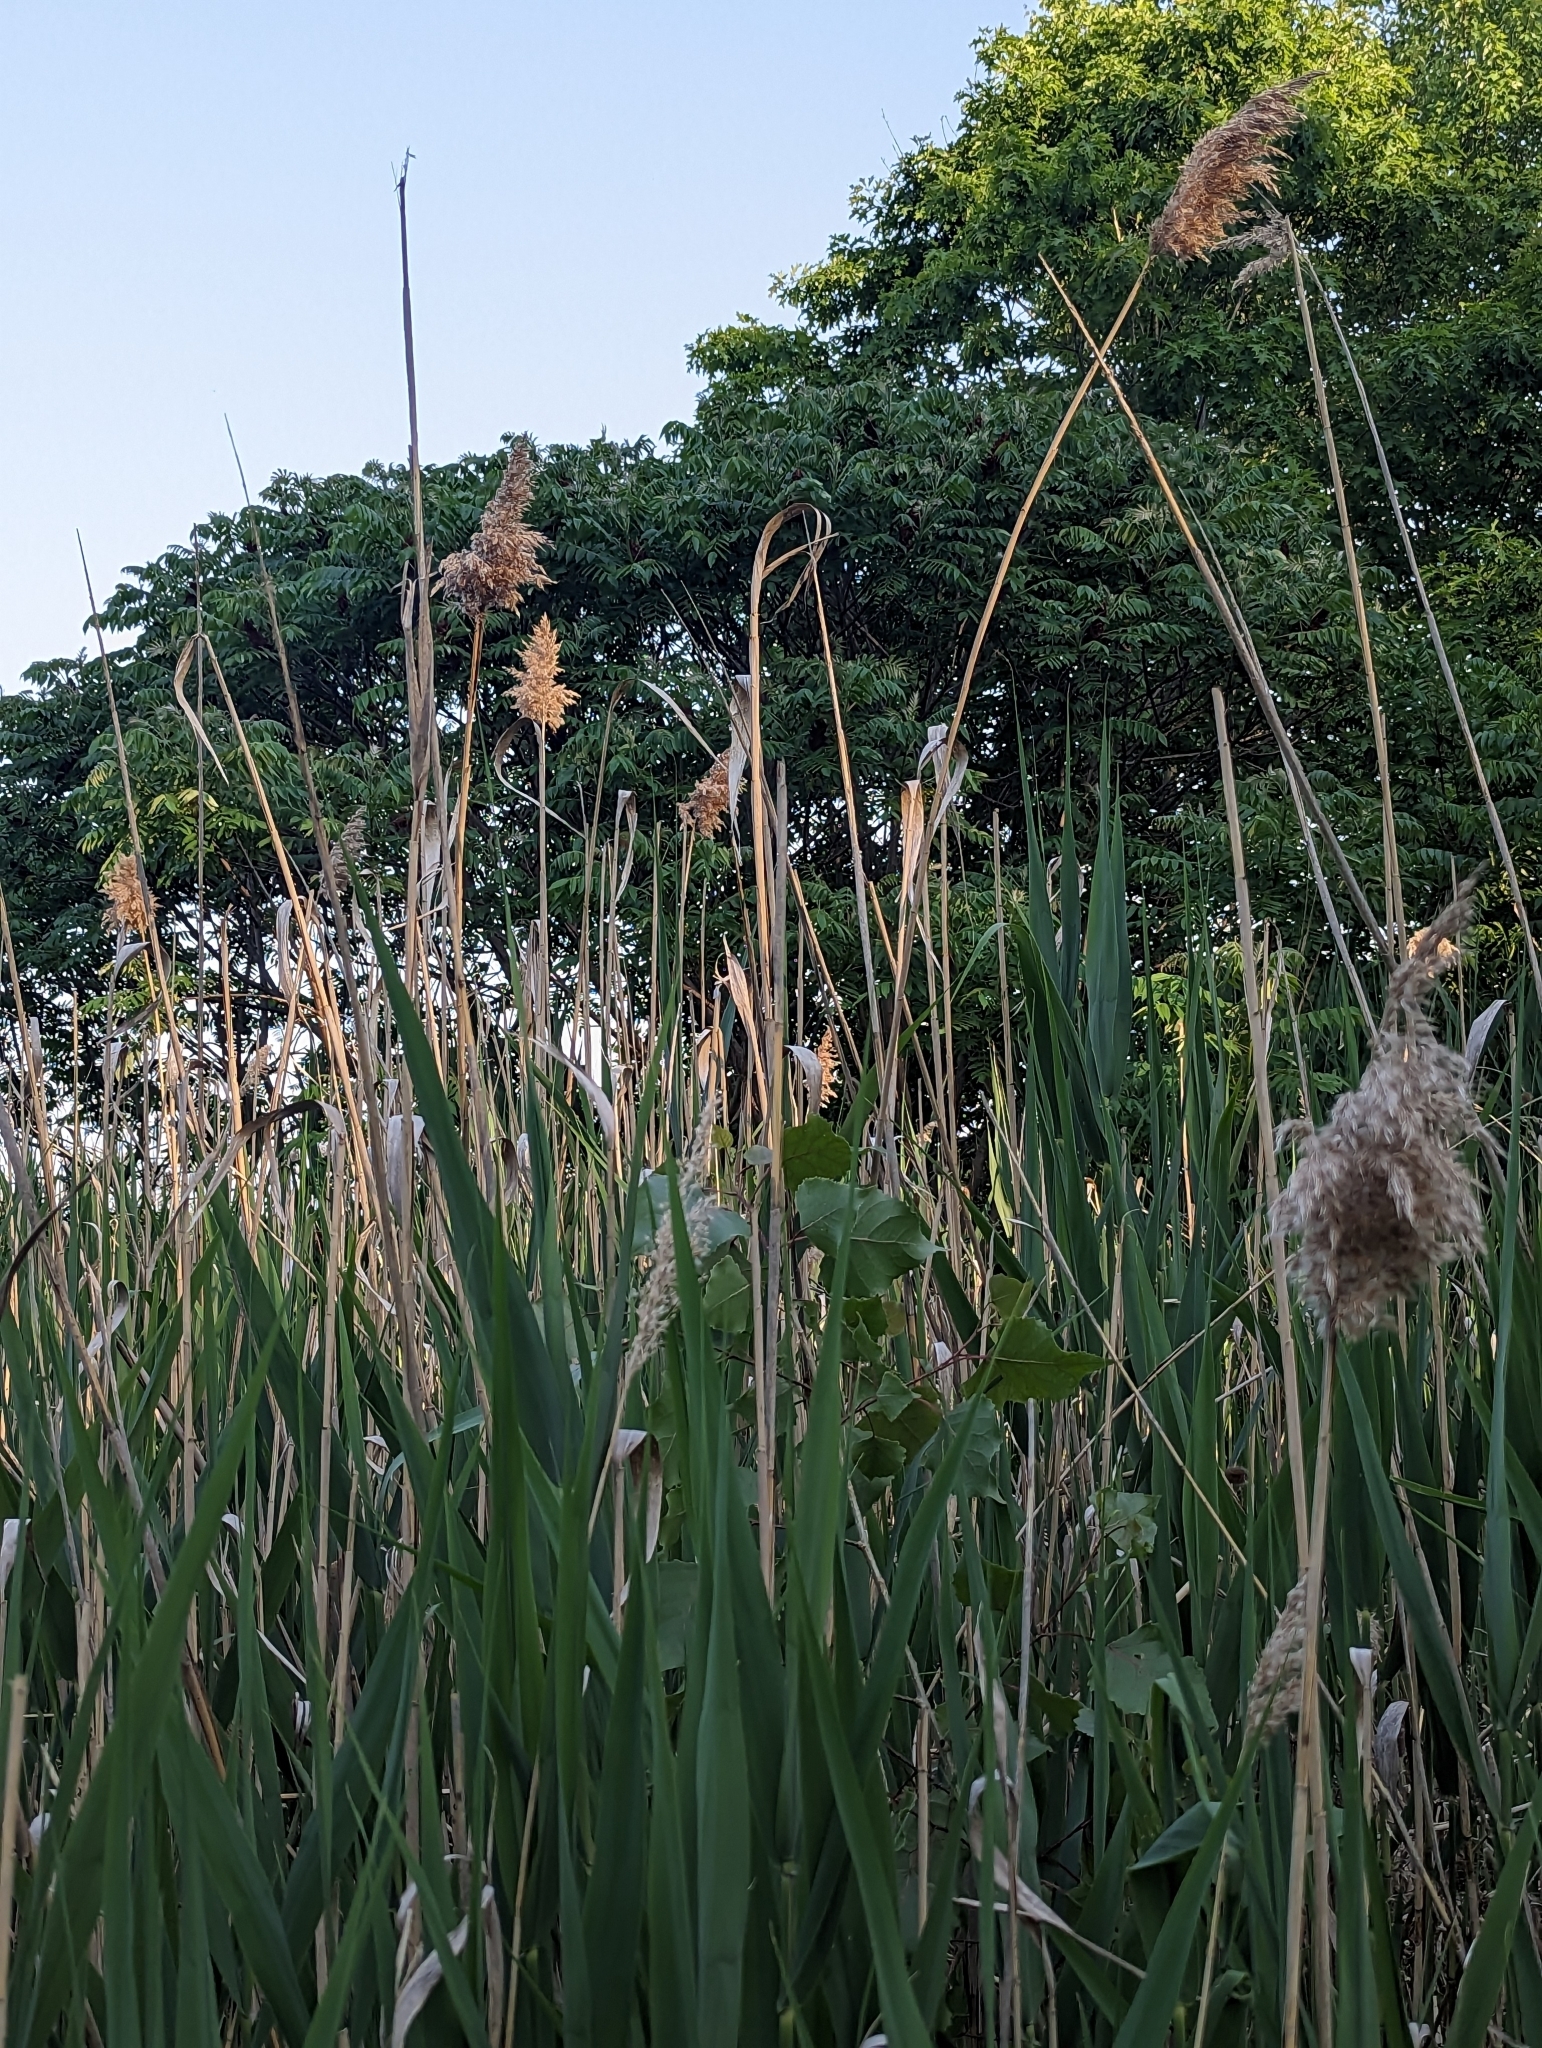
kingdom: Plantae
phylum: Tracheophyta
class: Liliopsida
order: Poales
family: Poaceae
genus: Phragmites
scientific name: Phragmites australis
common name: Common reed
